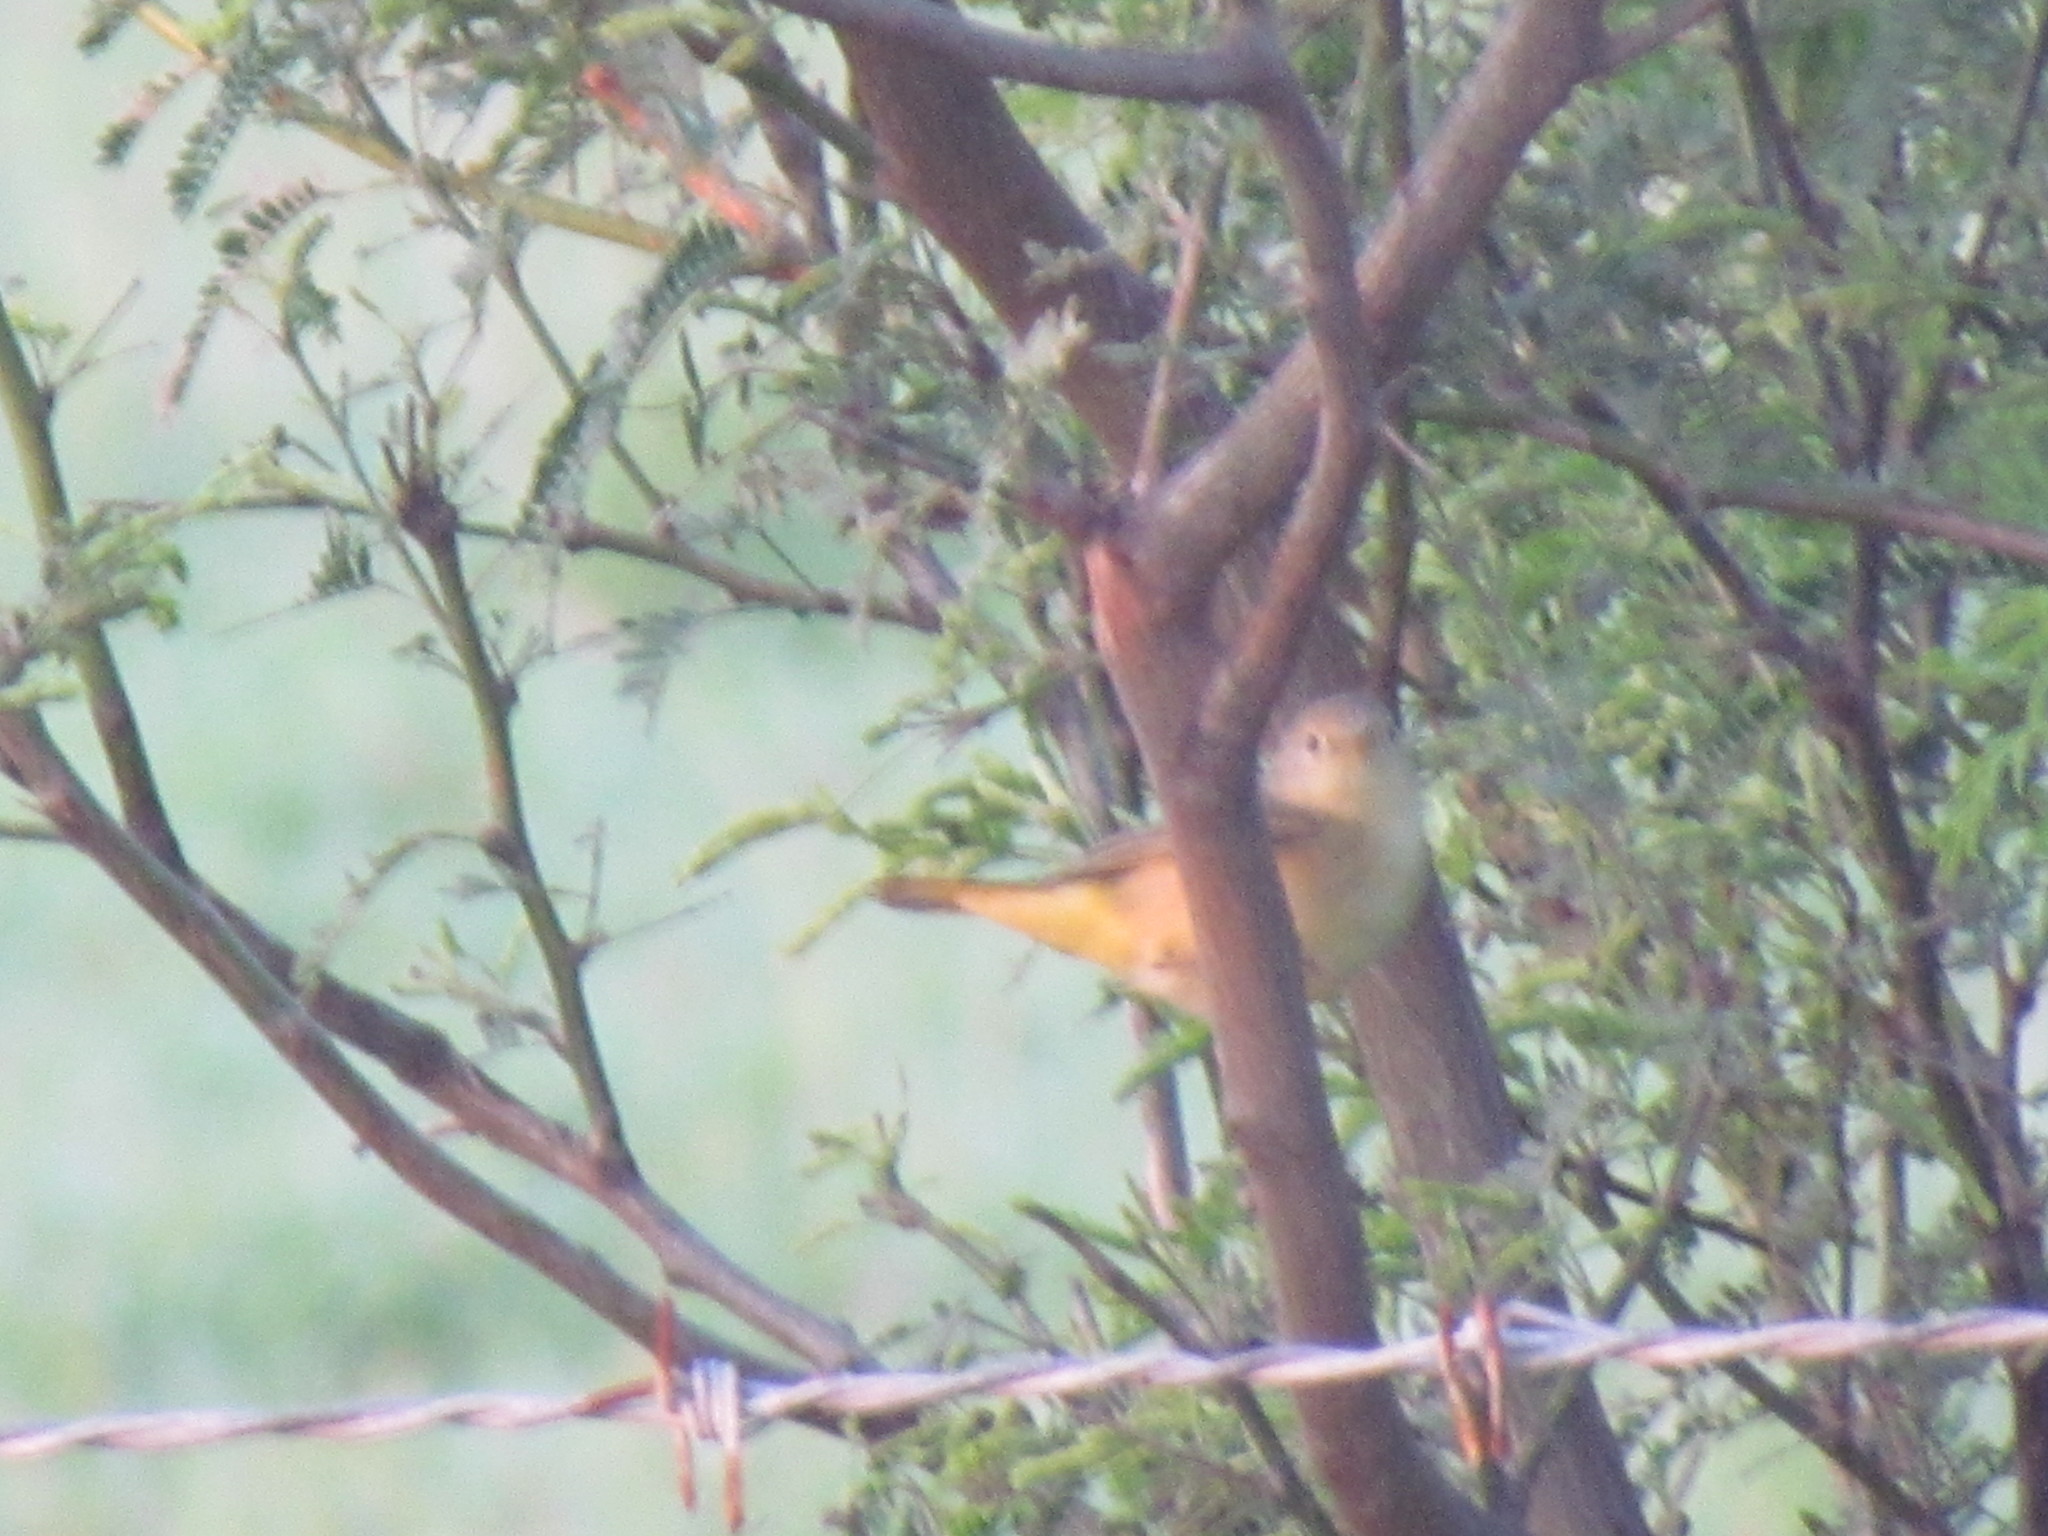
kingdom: Animalia
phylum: Chordata
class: Aves
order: Passeriformes
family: Parulidae
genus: Leiothlypis
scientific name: Leiothlypis ruficapilla
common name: Nashville warbler
